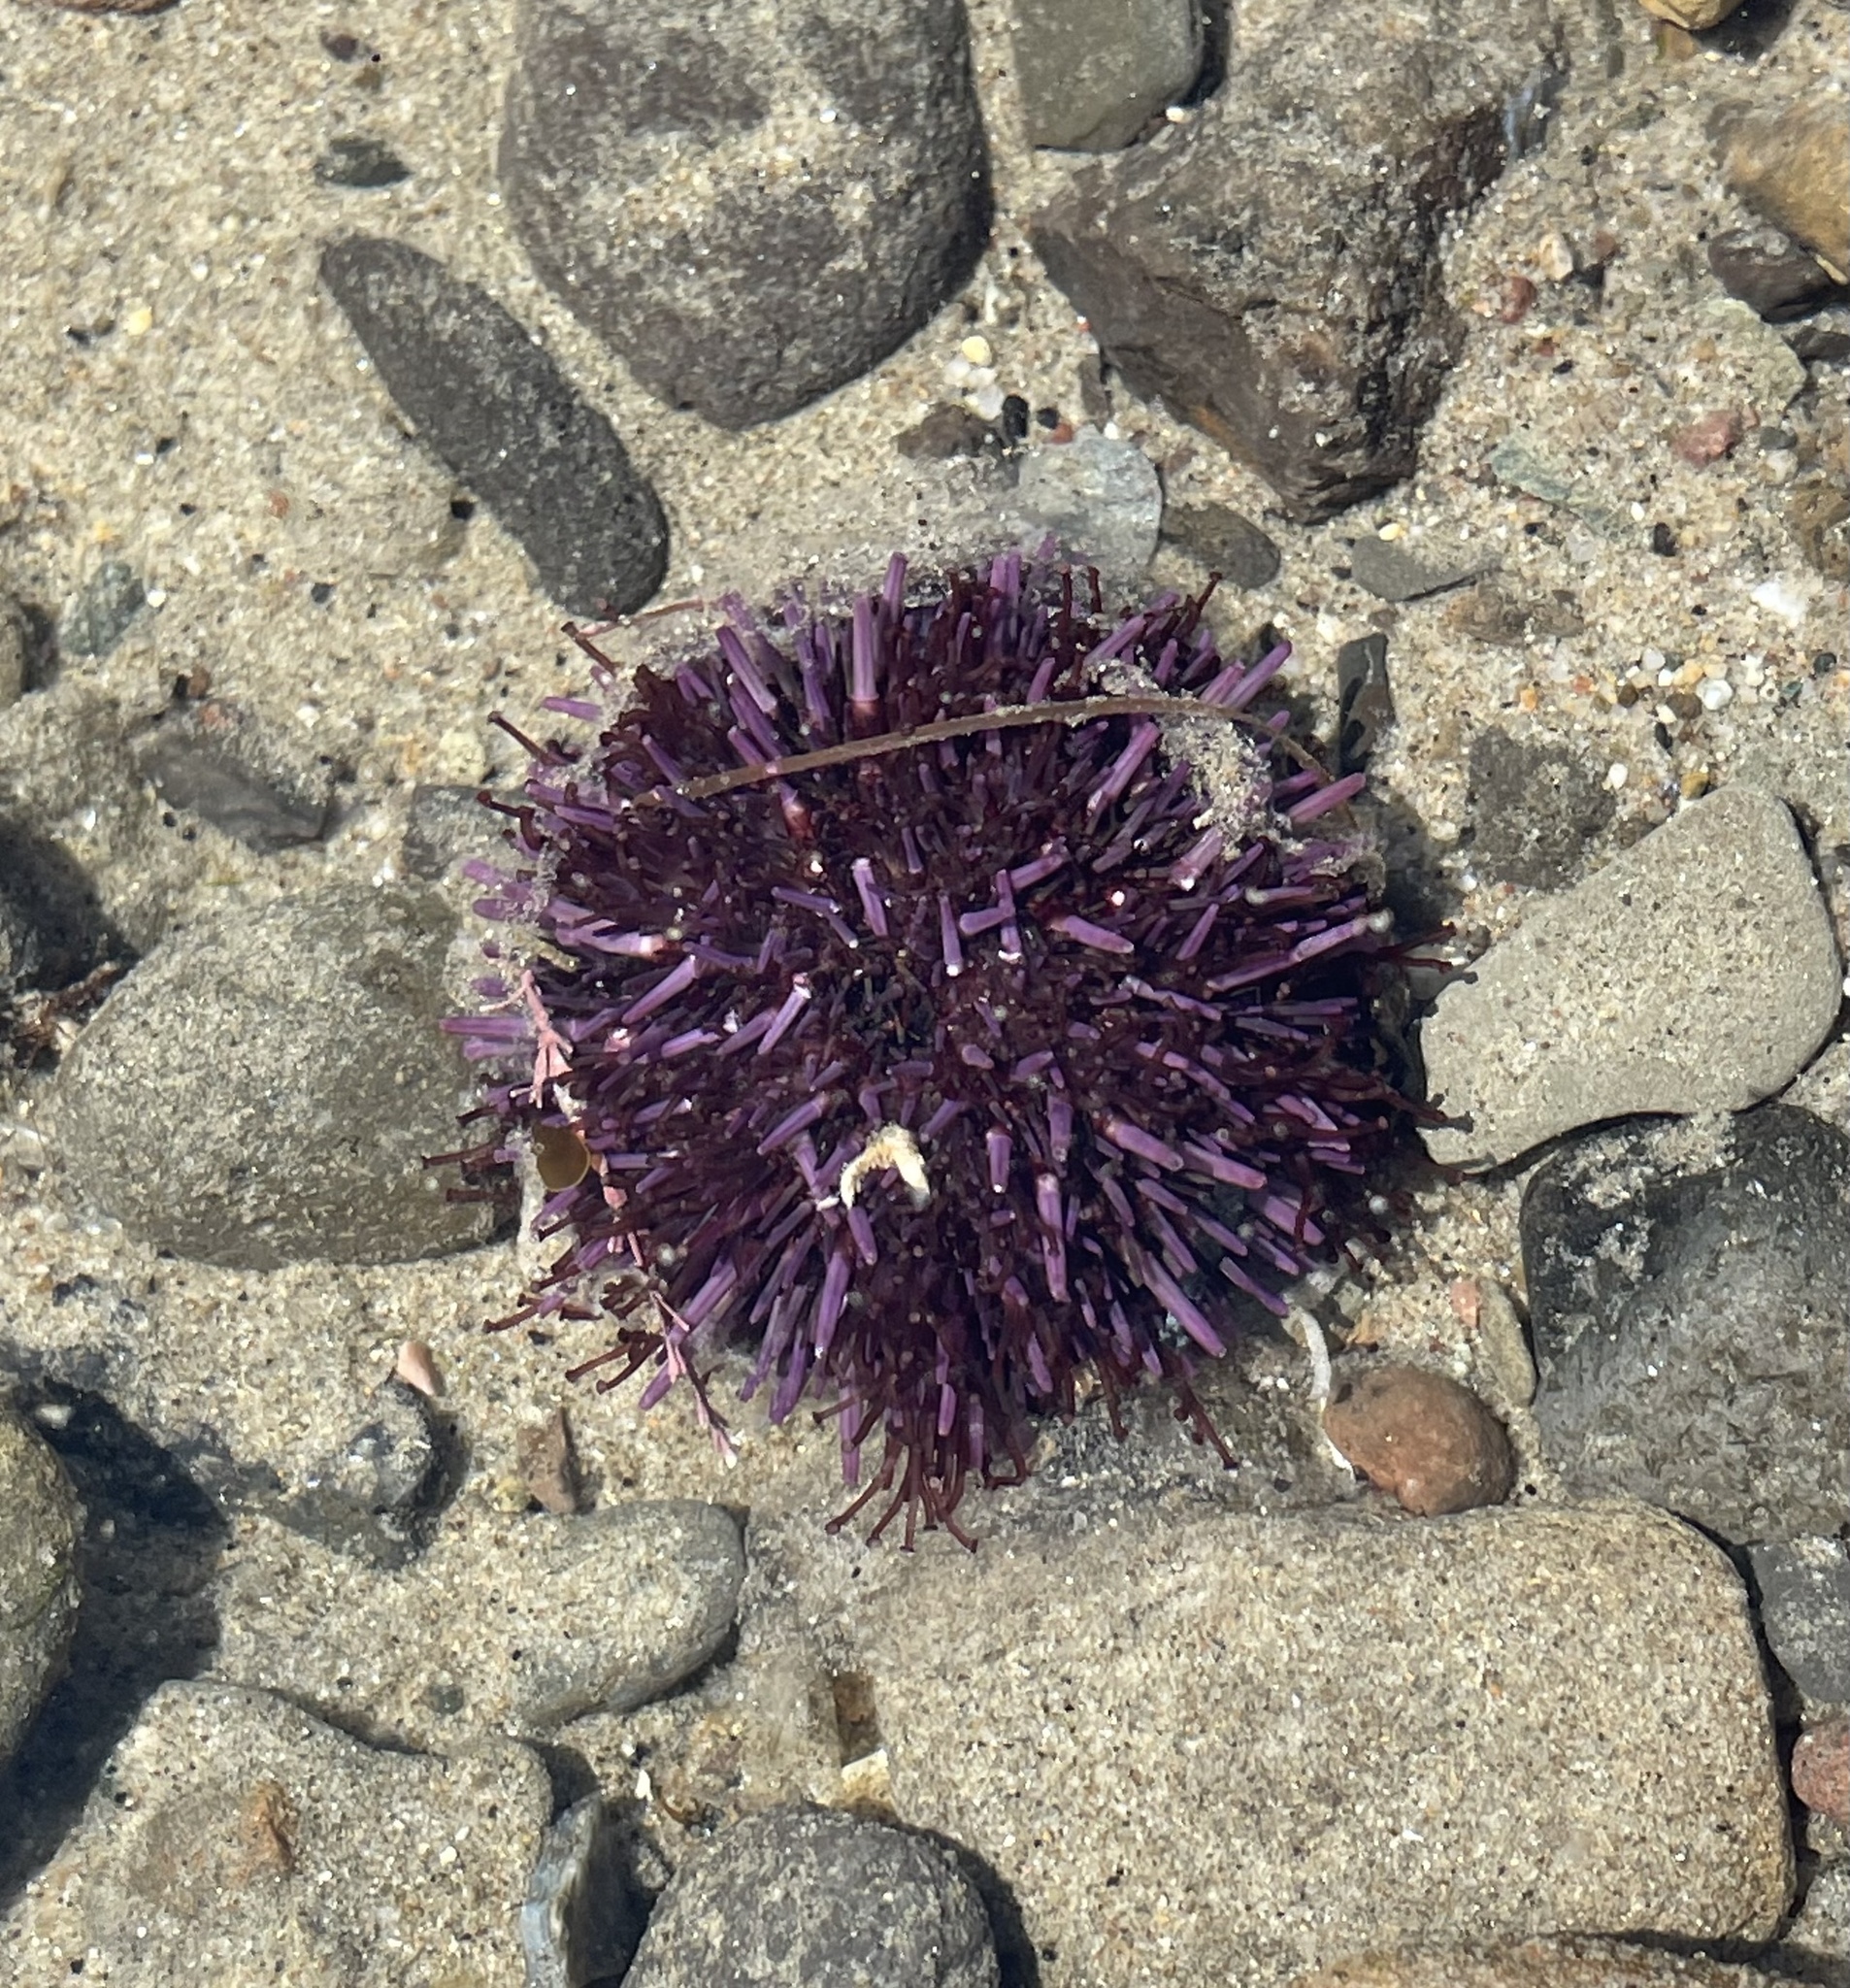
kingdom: Animalia
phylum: Echinodermata
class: Echinoidea
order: Camarodonta
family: Strongylocentrotidae
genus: Strongylocentrotus
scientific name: Strongylocentrotus purpuratus
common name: Purple sea urchin
